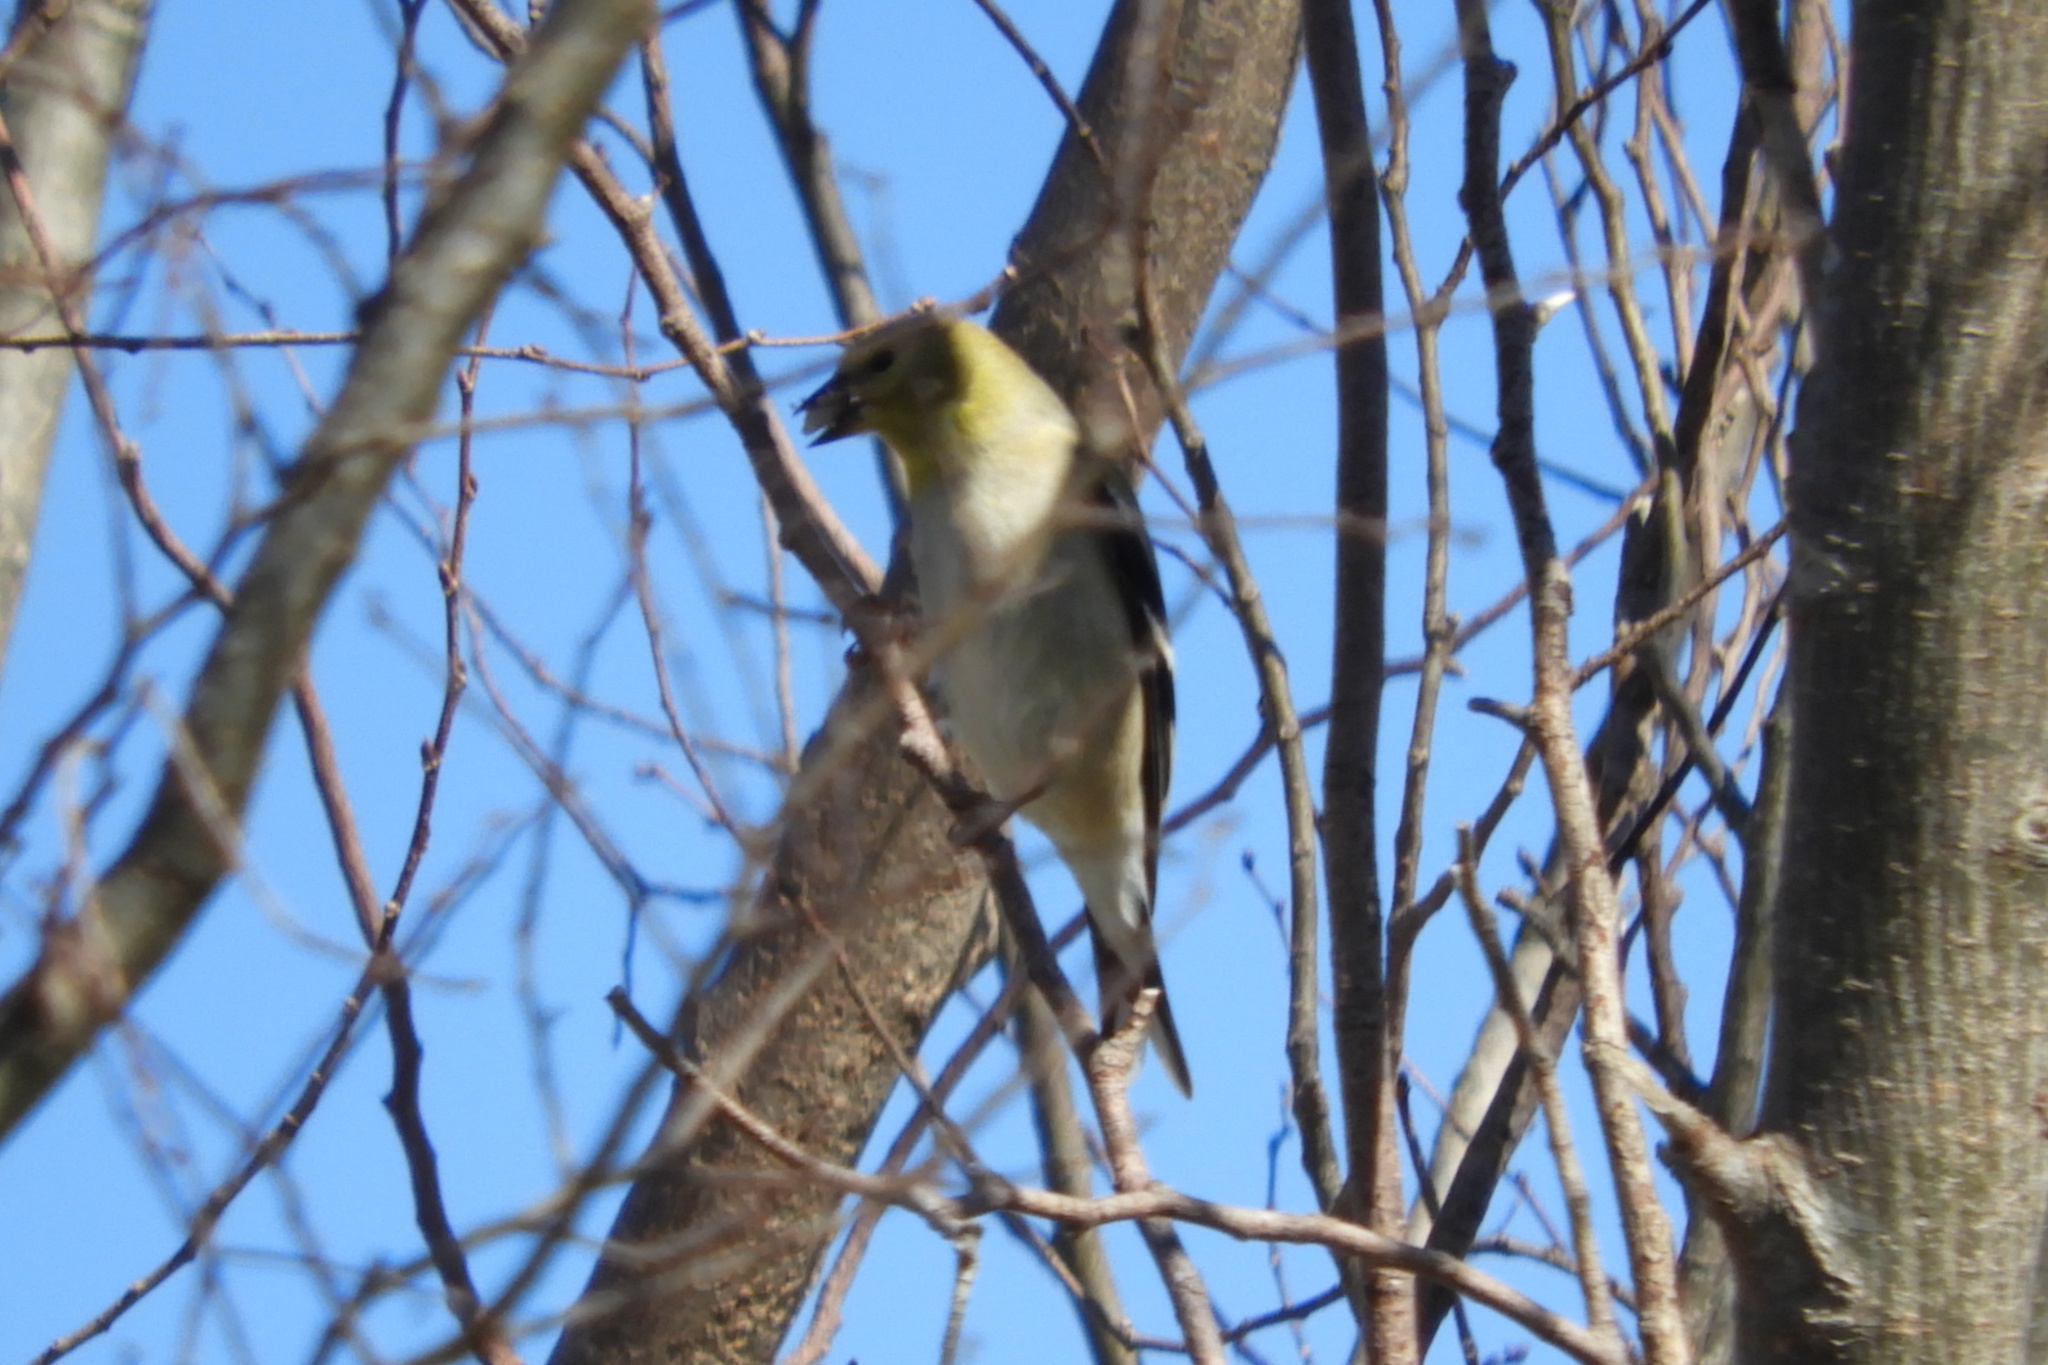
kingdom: Animalia
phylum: Chordata
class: Aves
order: Passeriformes
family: Fringillidae
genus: Spinus
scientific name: Spinus tristis
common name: American goldfinch
